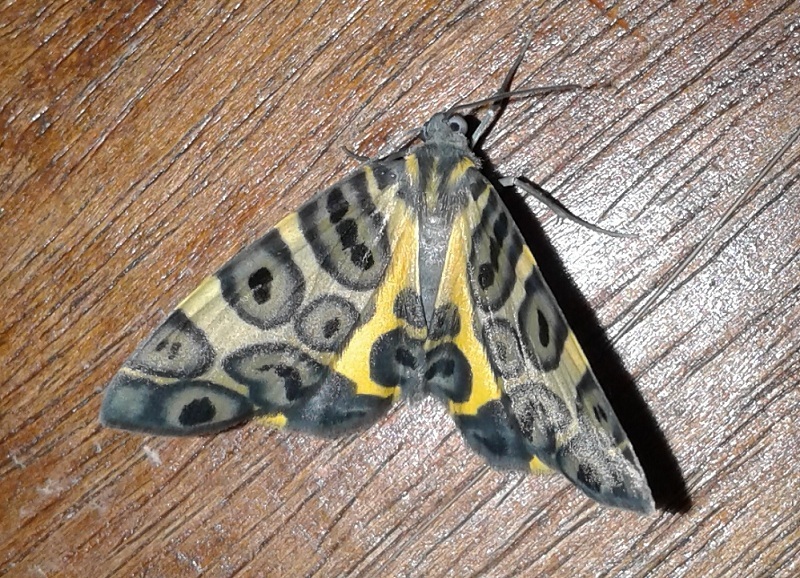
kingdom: Animalia
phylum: Arthropoda
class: Insecta
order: Lepidoptera
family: Geometridae
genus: Pantherodes
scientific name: Pantherodes pardalaria
